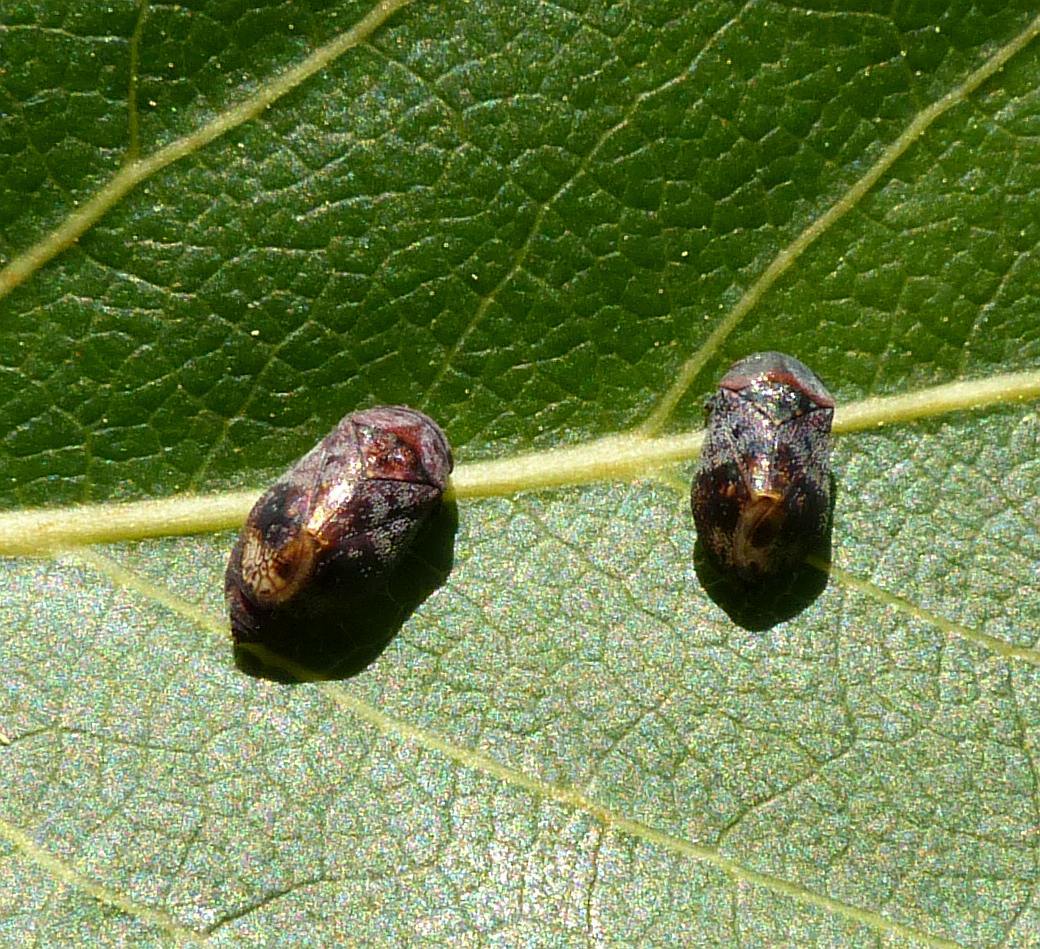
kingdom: Animalia
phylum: Arthropoda
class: Insecta
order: Hemiptera
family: Cicadellidae
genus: Penthimia
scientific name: Penthimia americana
